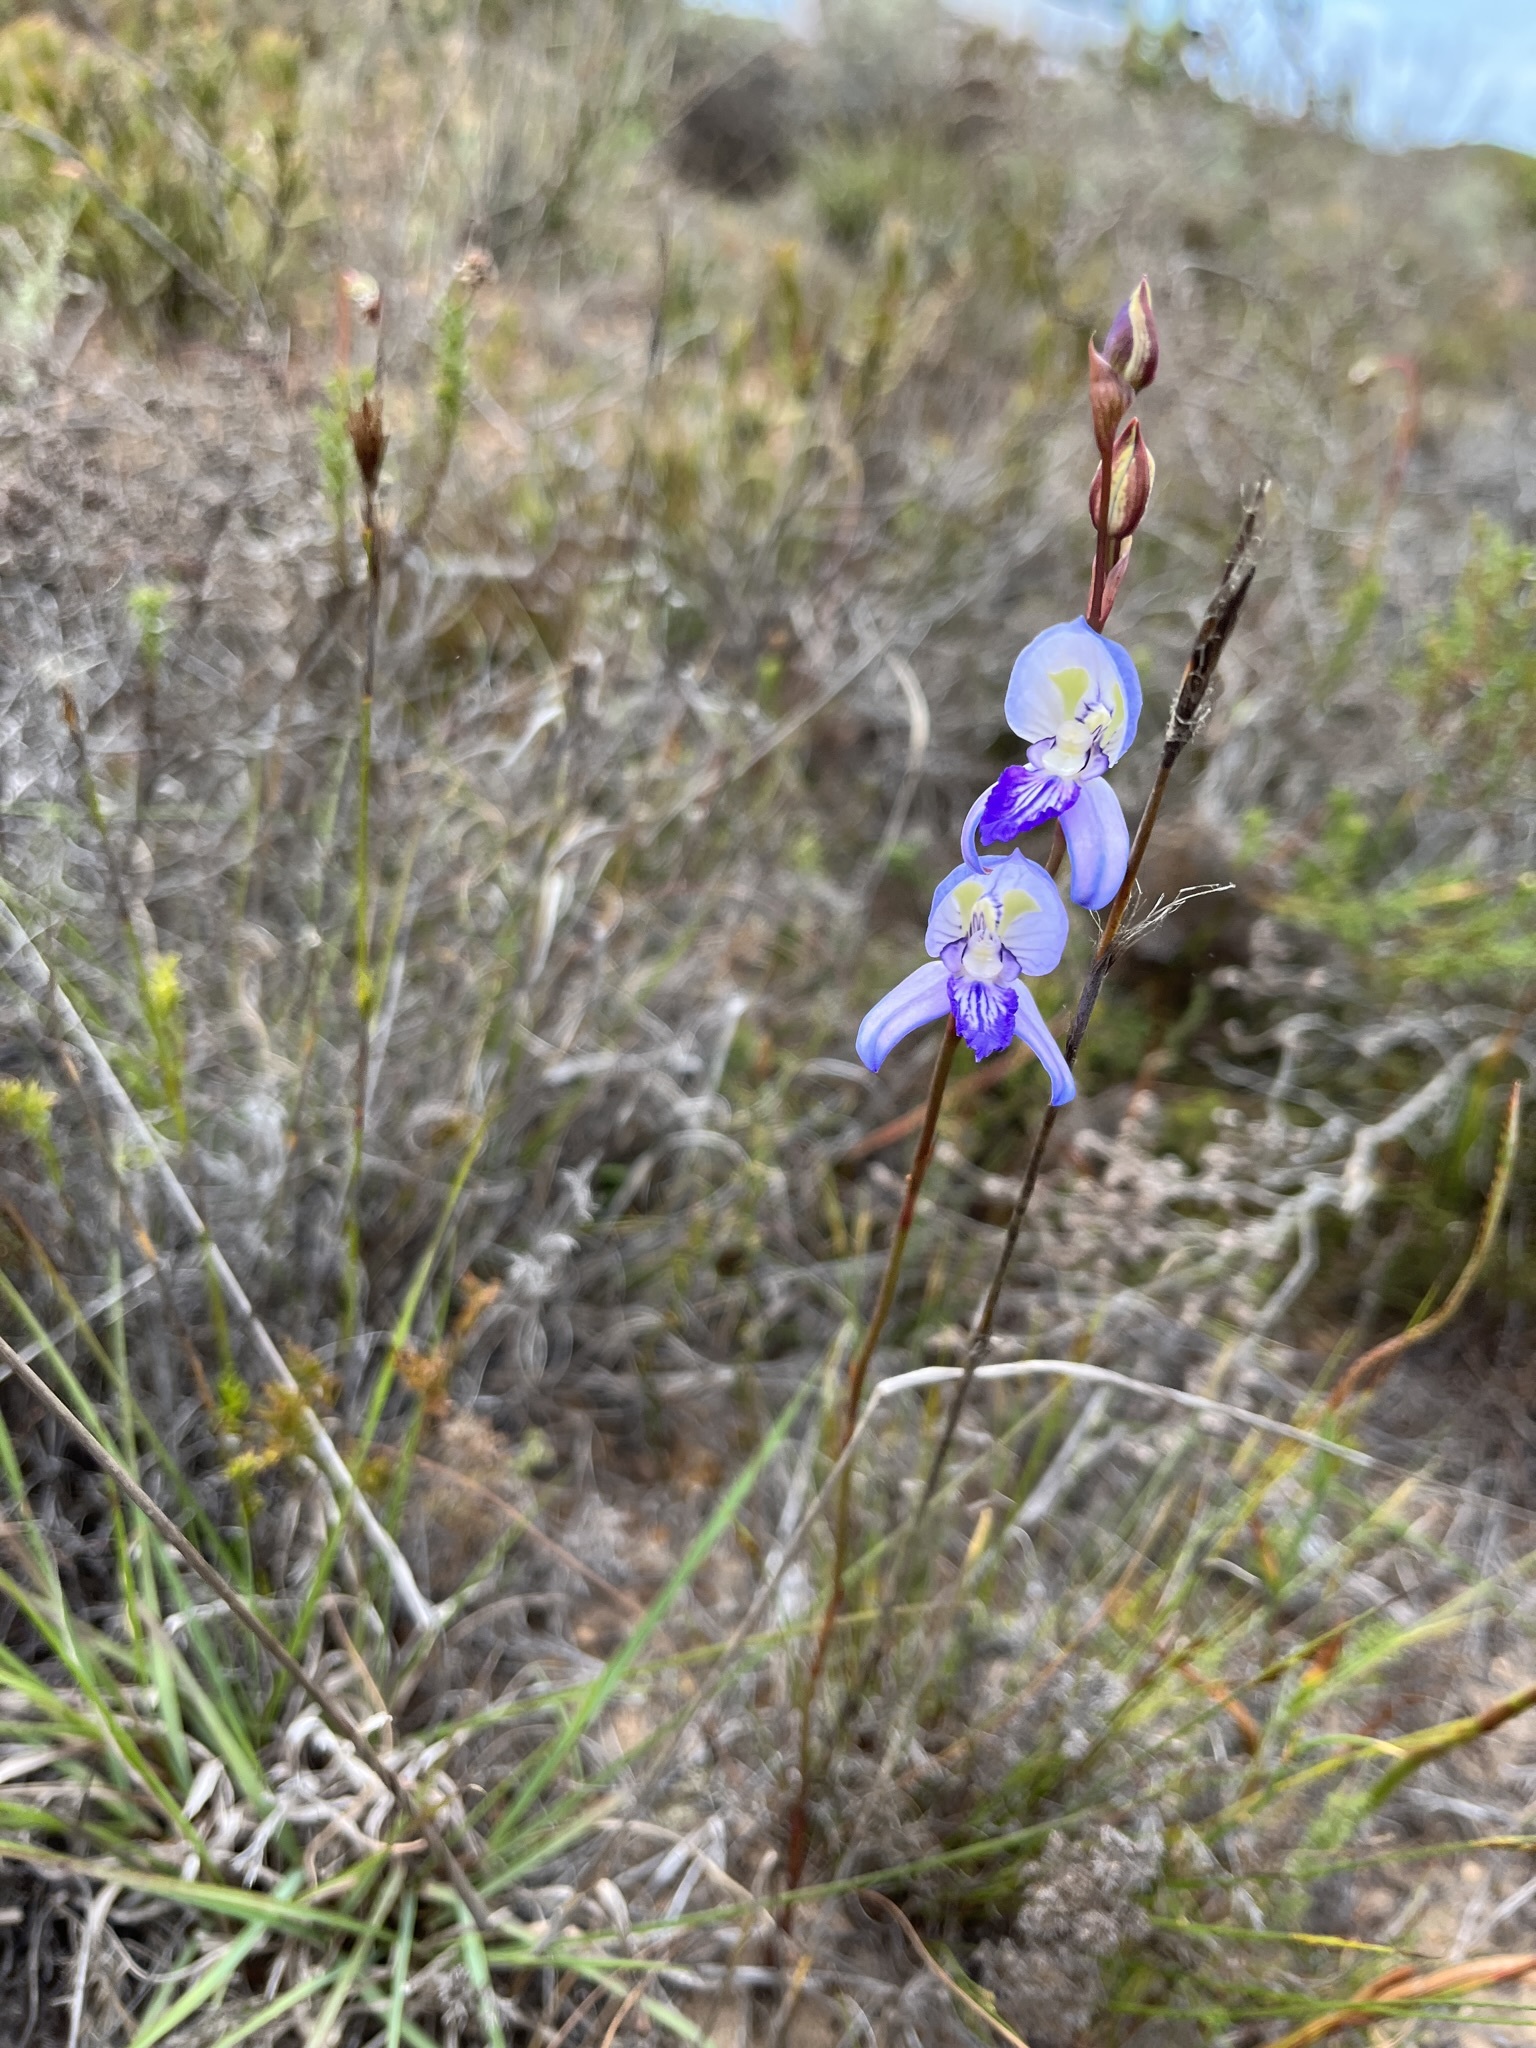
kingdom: Plantae
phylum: Tracheophyta
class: Liliopsida
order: Asparagales
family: Orchidaceae
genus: Disa
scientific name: Disa purpurascens
